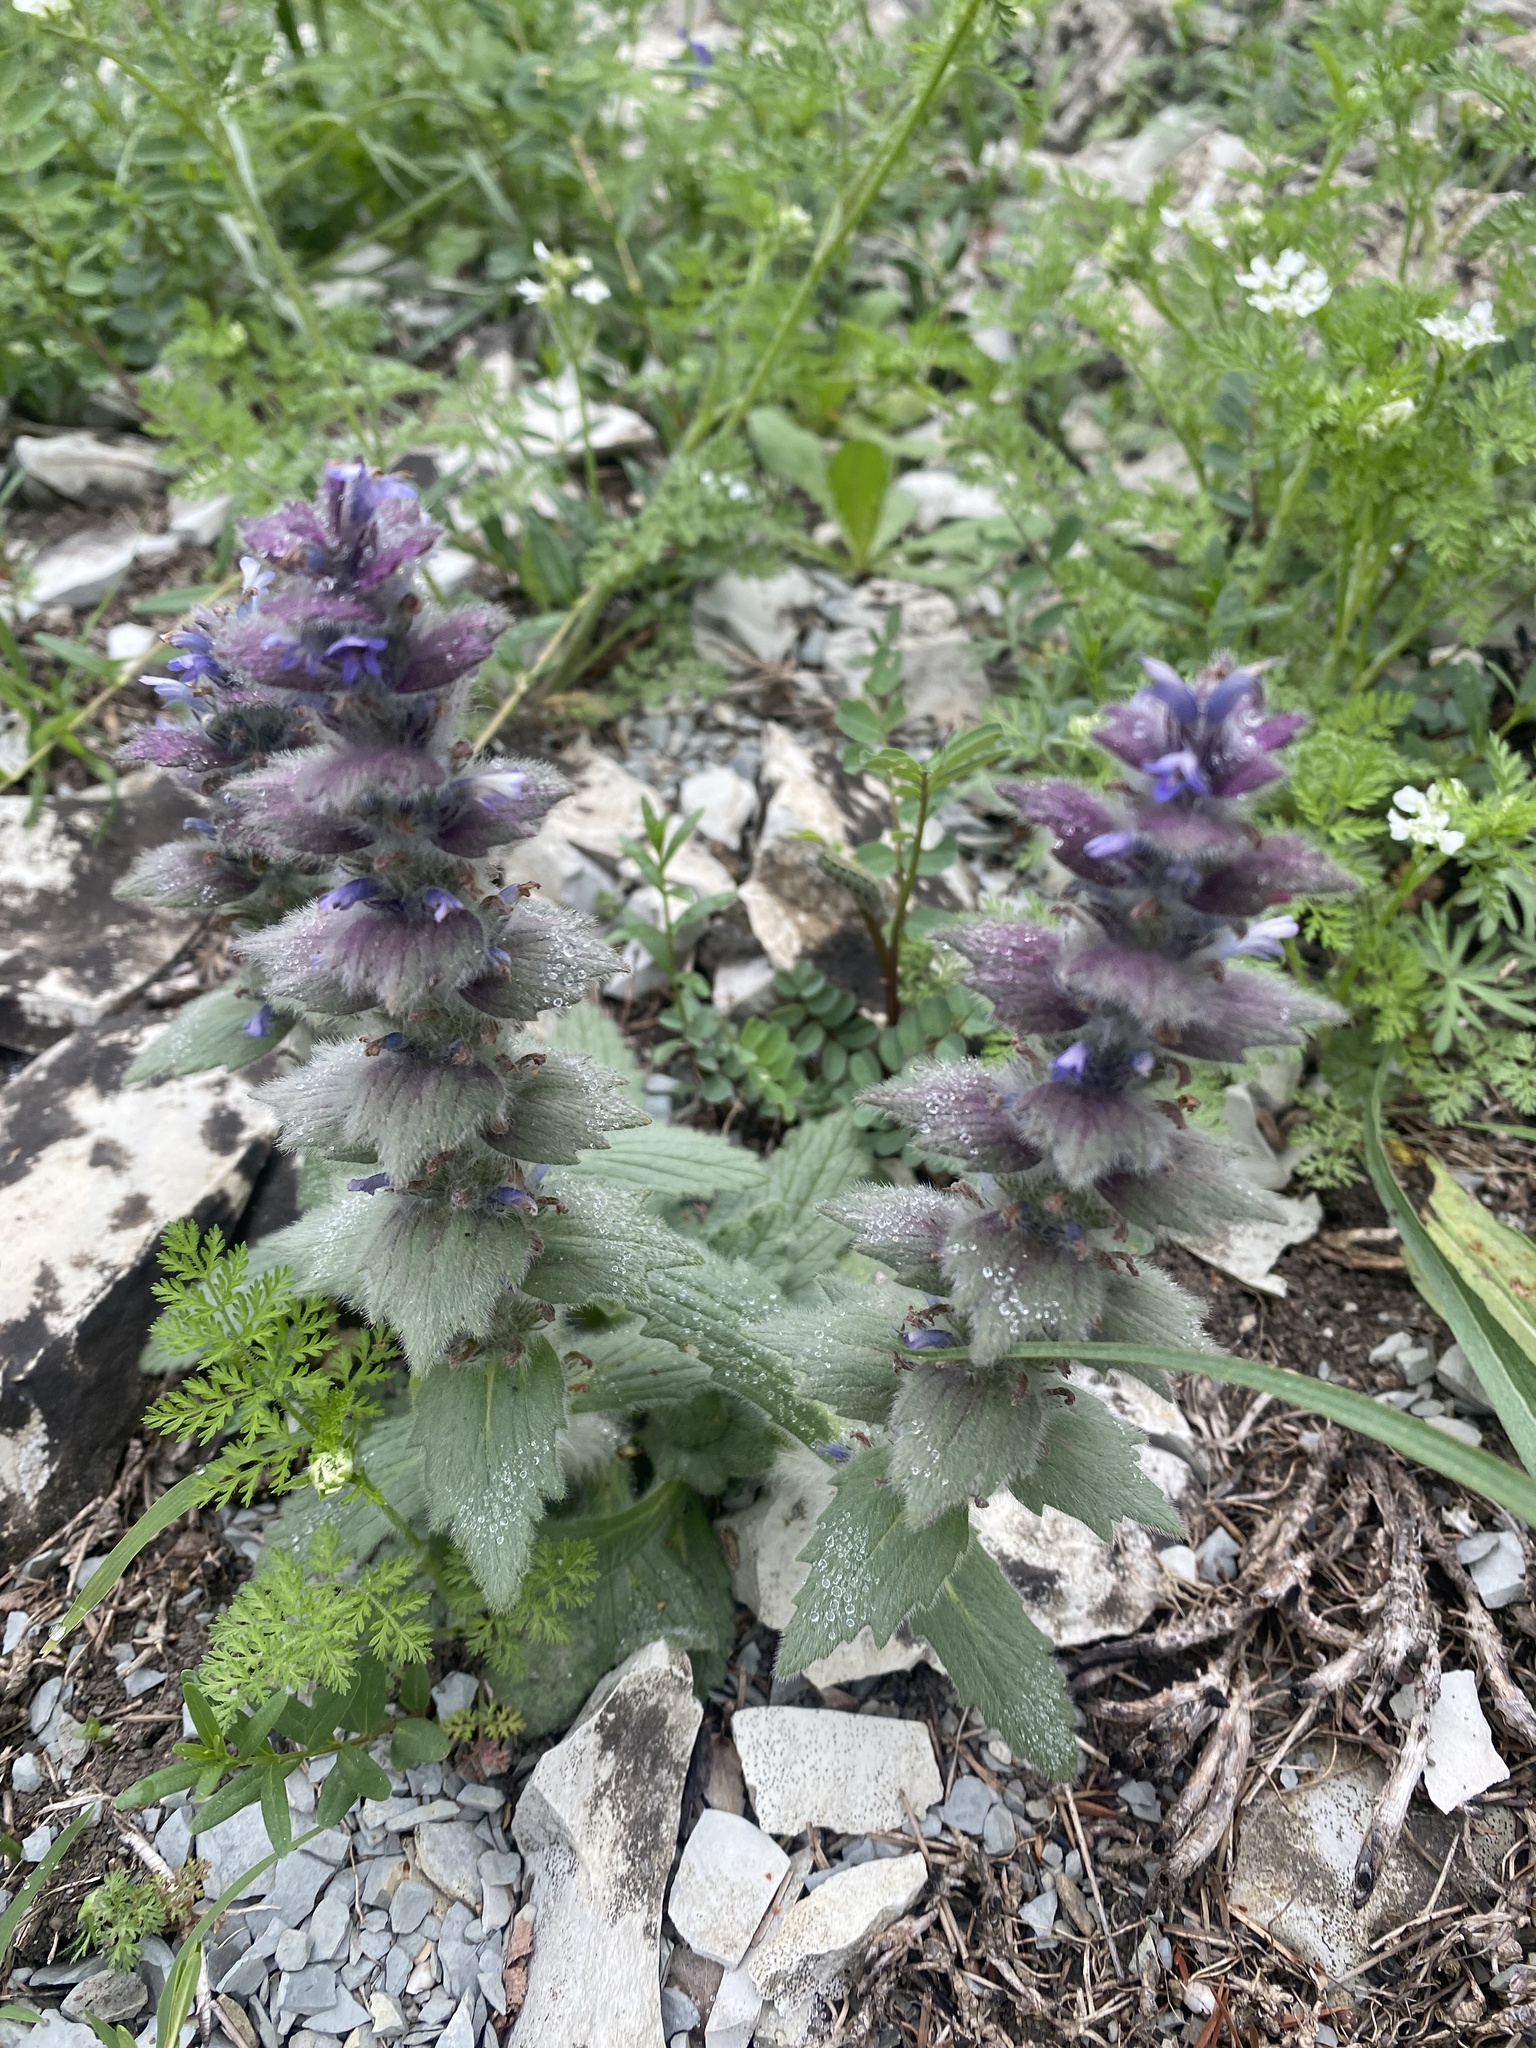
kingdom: Plantae
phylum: Tracheophyta
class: Magnoliopsida
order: Lamiales
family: Lamiaceae
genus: Ajuga
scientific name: Ajuga orientalis
